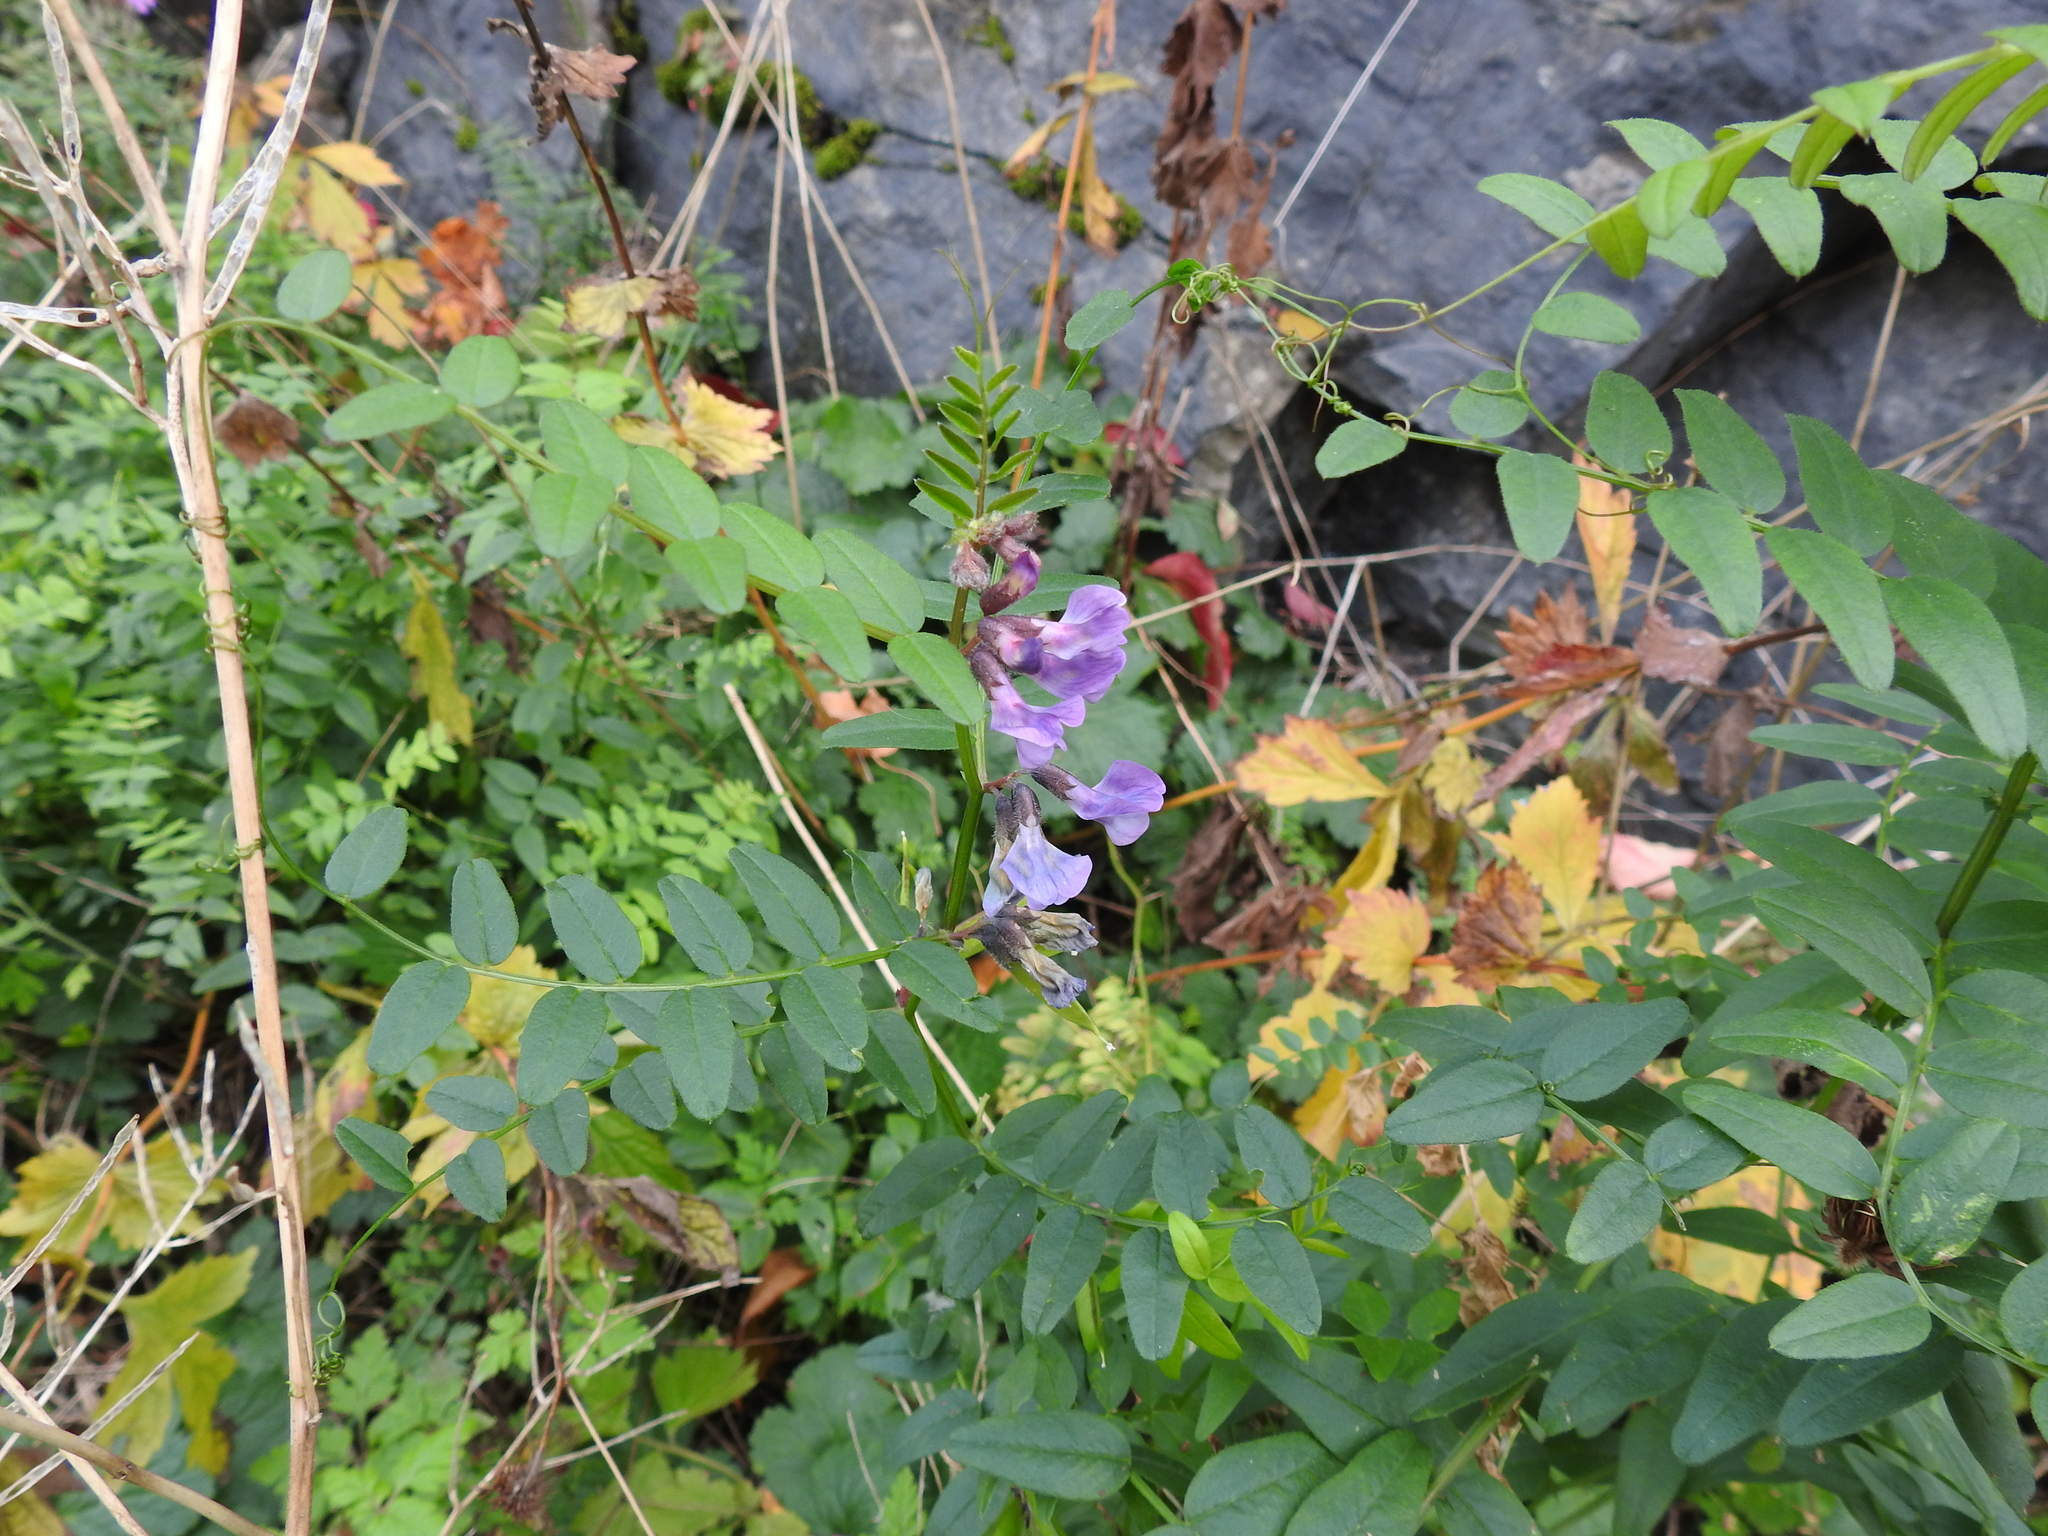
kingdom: Plantae
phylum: Tracheophyta
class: Magnoliopsida
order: Fabales
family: Fabaceae
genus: Vicia
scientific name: Vicia sepium
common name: Bush vetch
